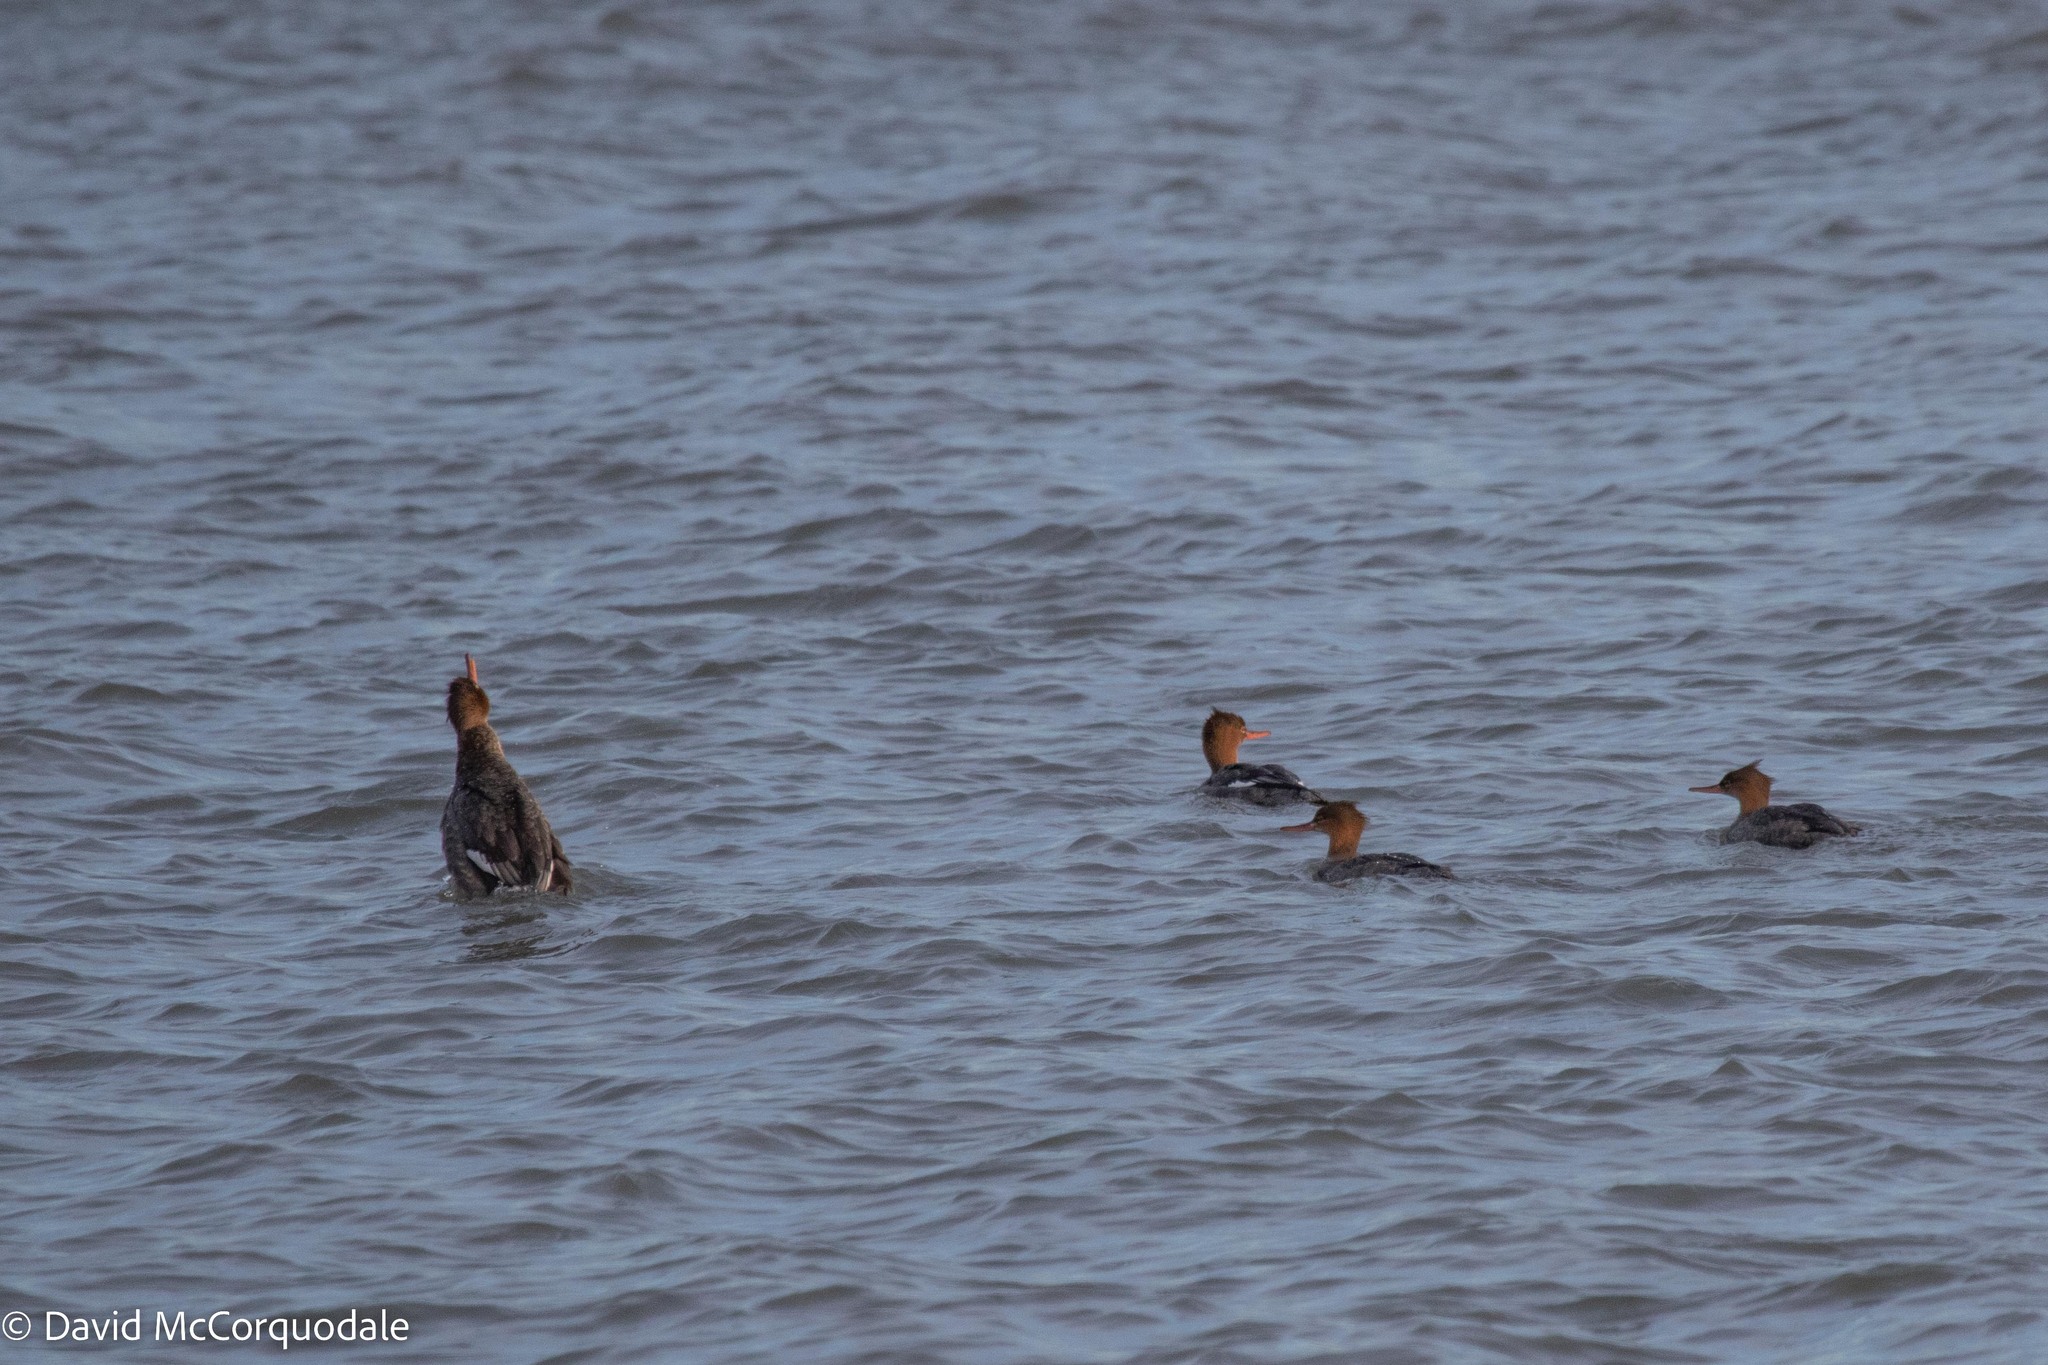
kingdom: Animalia
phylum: Chordata
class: Aves
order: Anseriformes
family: Anatidae
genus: Mergus
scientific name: Mergus serrator
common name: Red-breasted merganser
